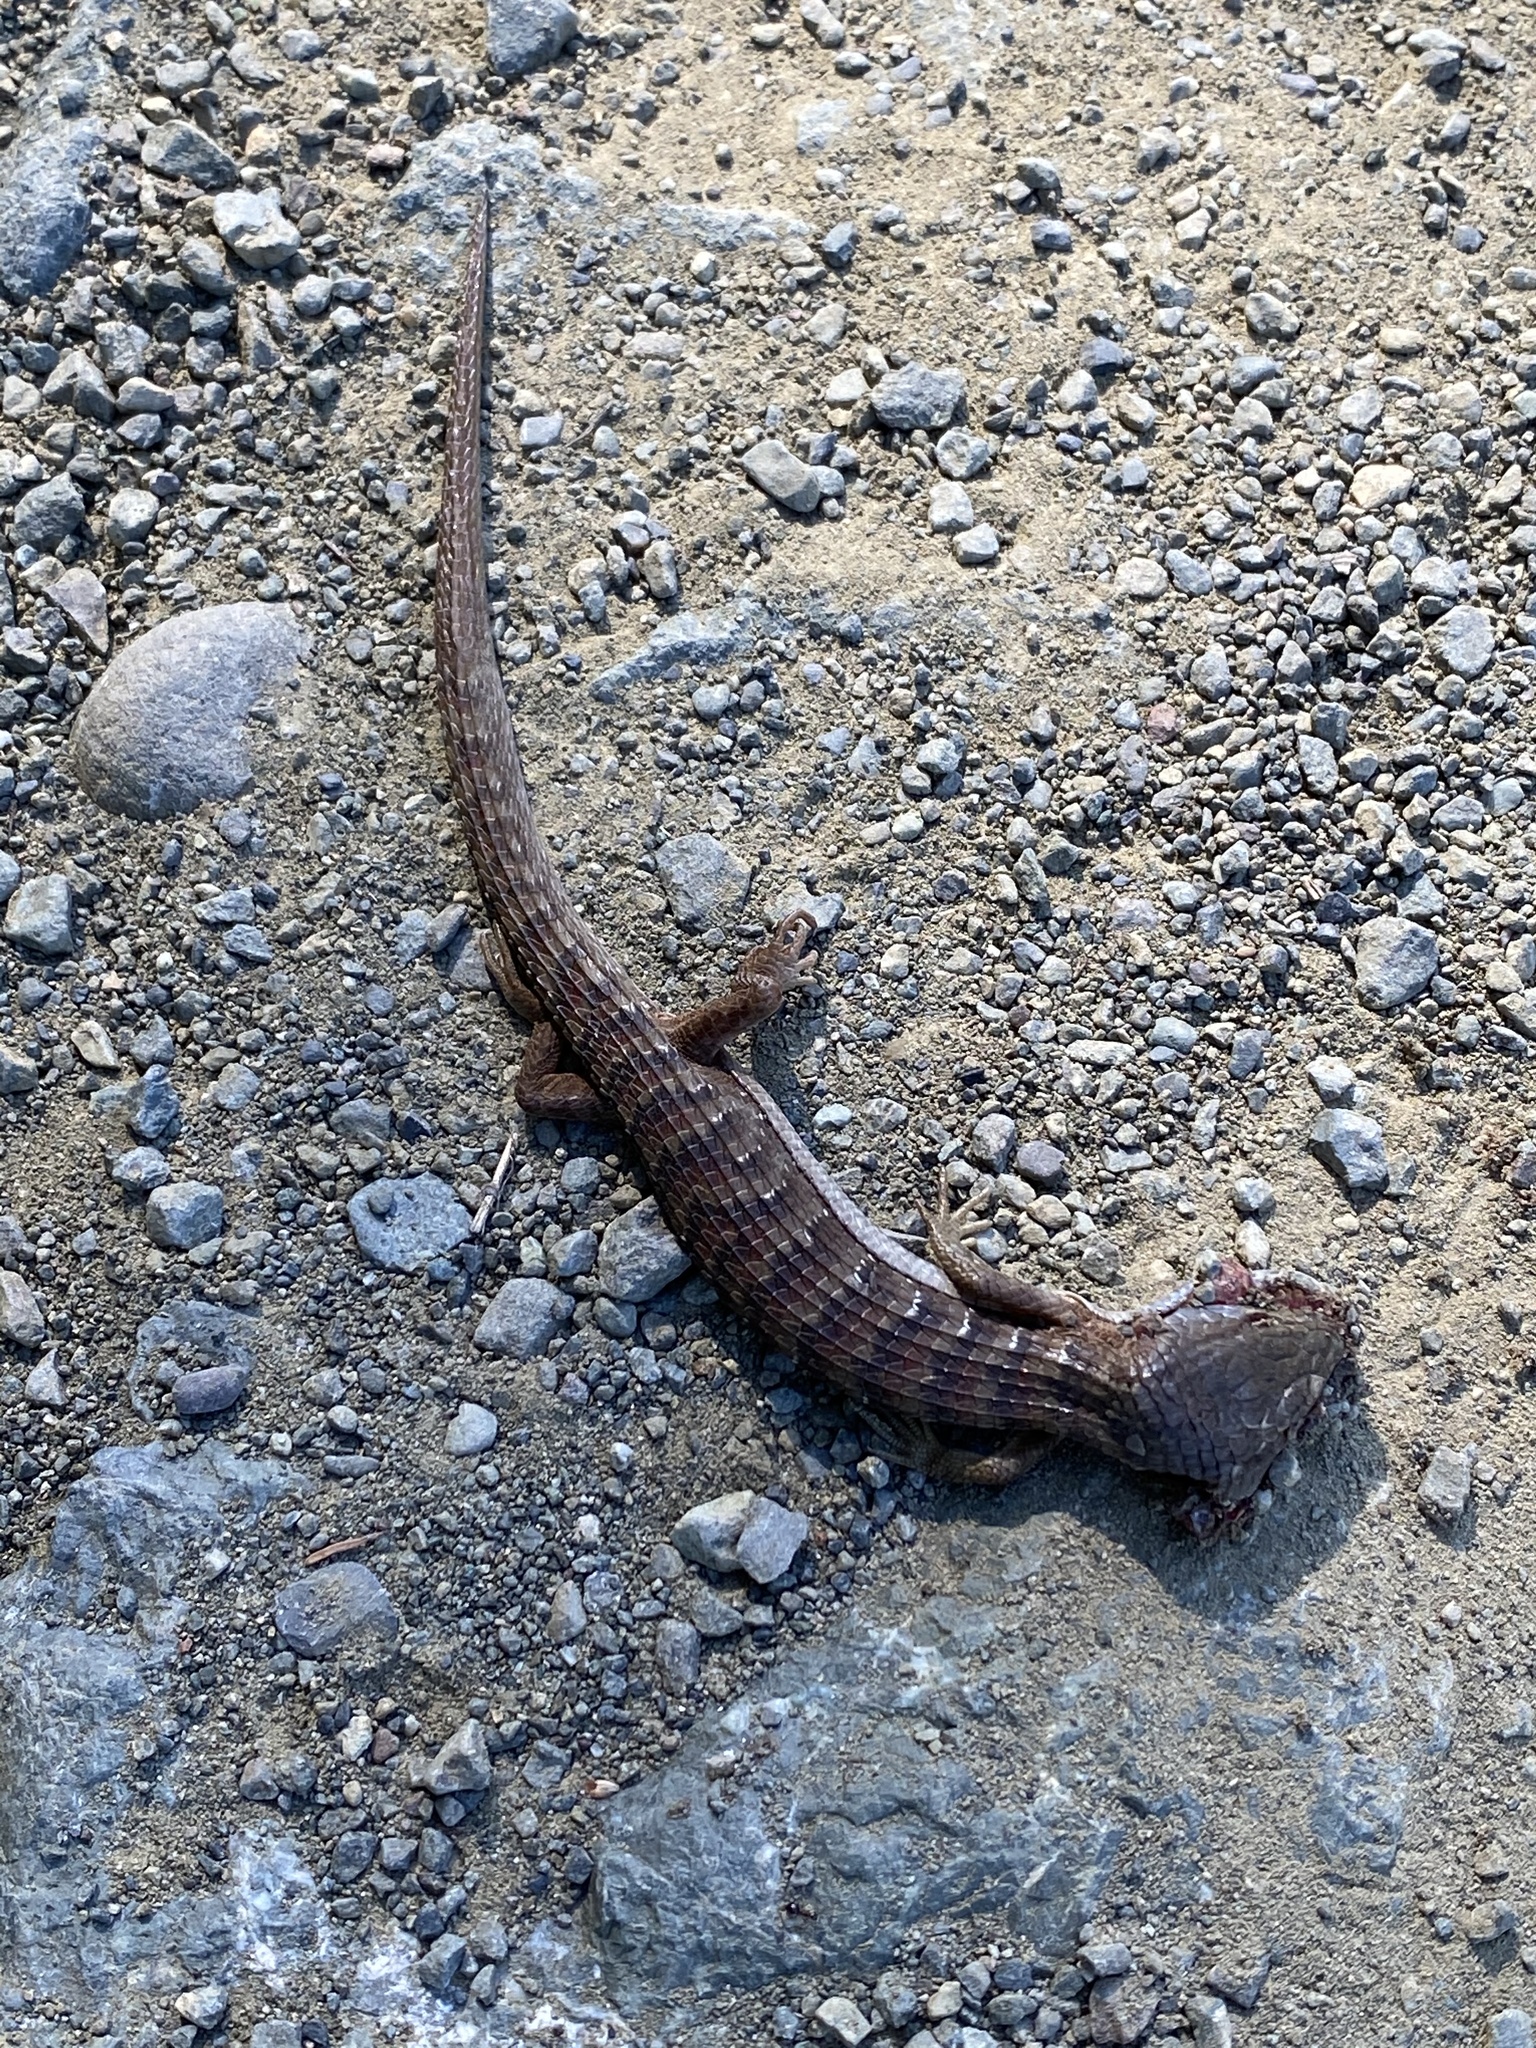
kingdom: Animalia
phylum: Chordata
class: Squamata
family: Anguidae
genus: Elgaria
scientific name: Elgaria multicarinata
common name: Southern alligator lizard
